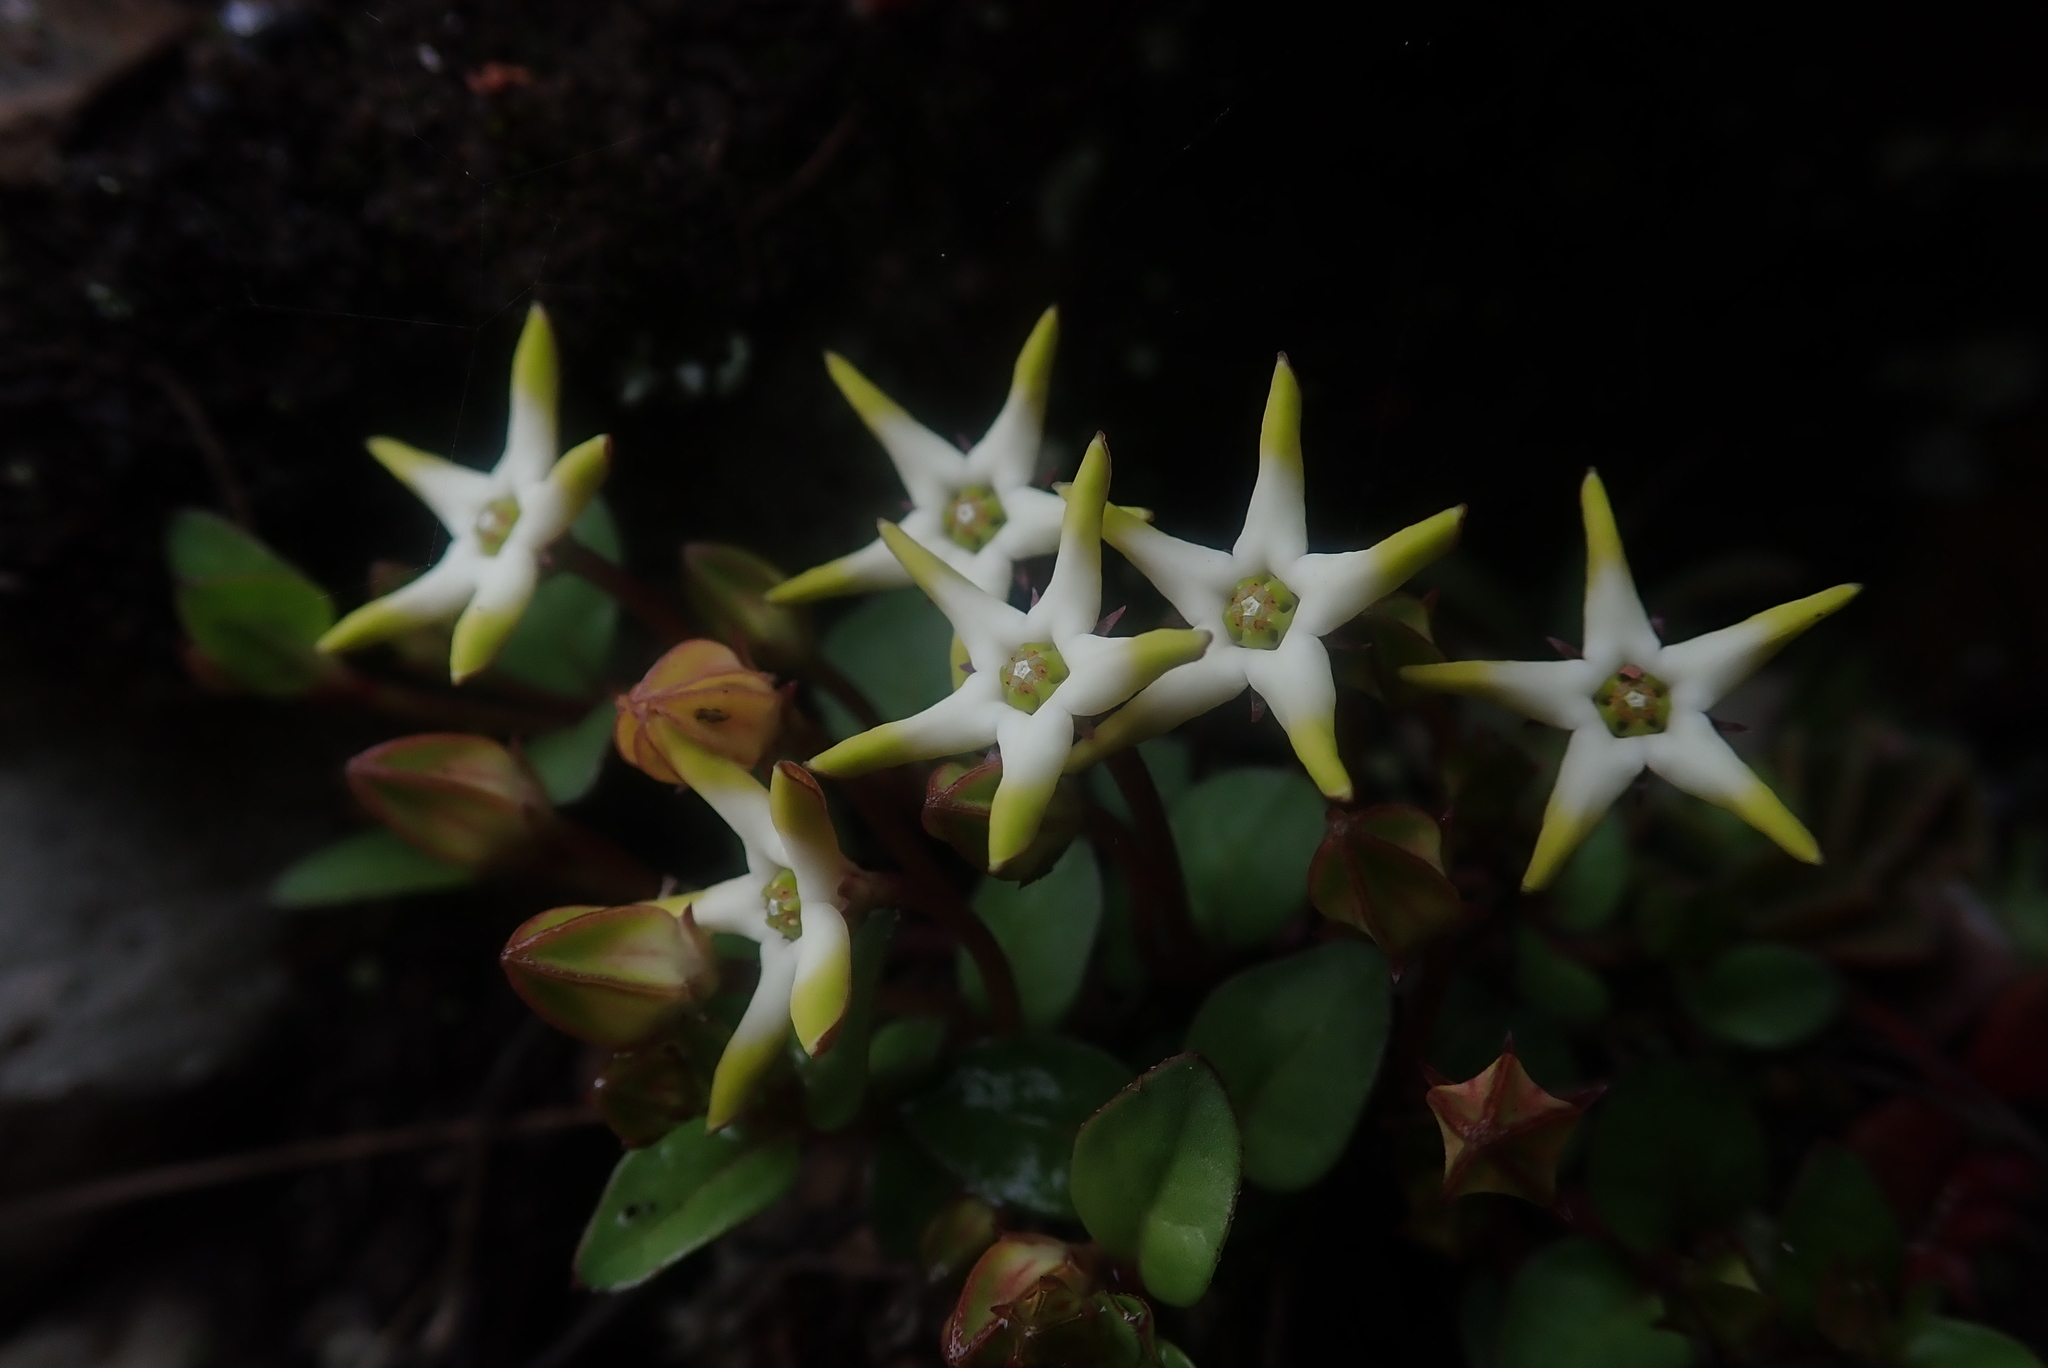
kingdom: Plantae
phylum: Tracheophyta
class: Magnoliopsida
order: Gentianales
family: Apocynaceae
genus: Ceropegia
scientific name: Ceropegia stellata
